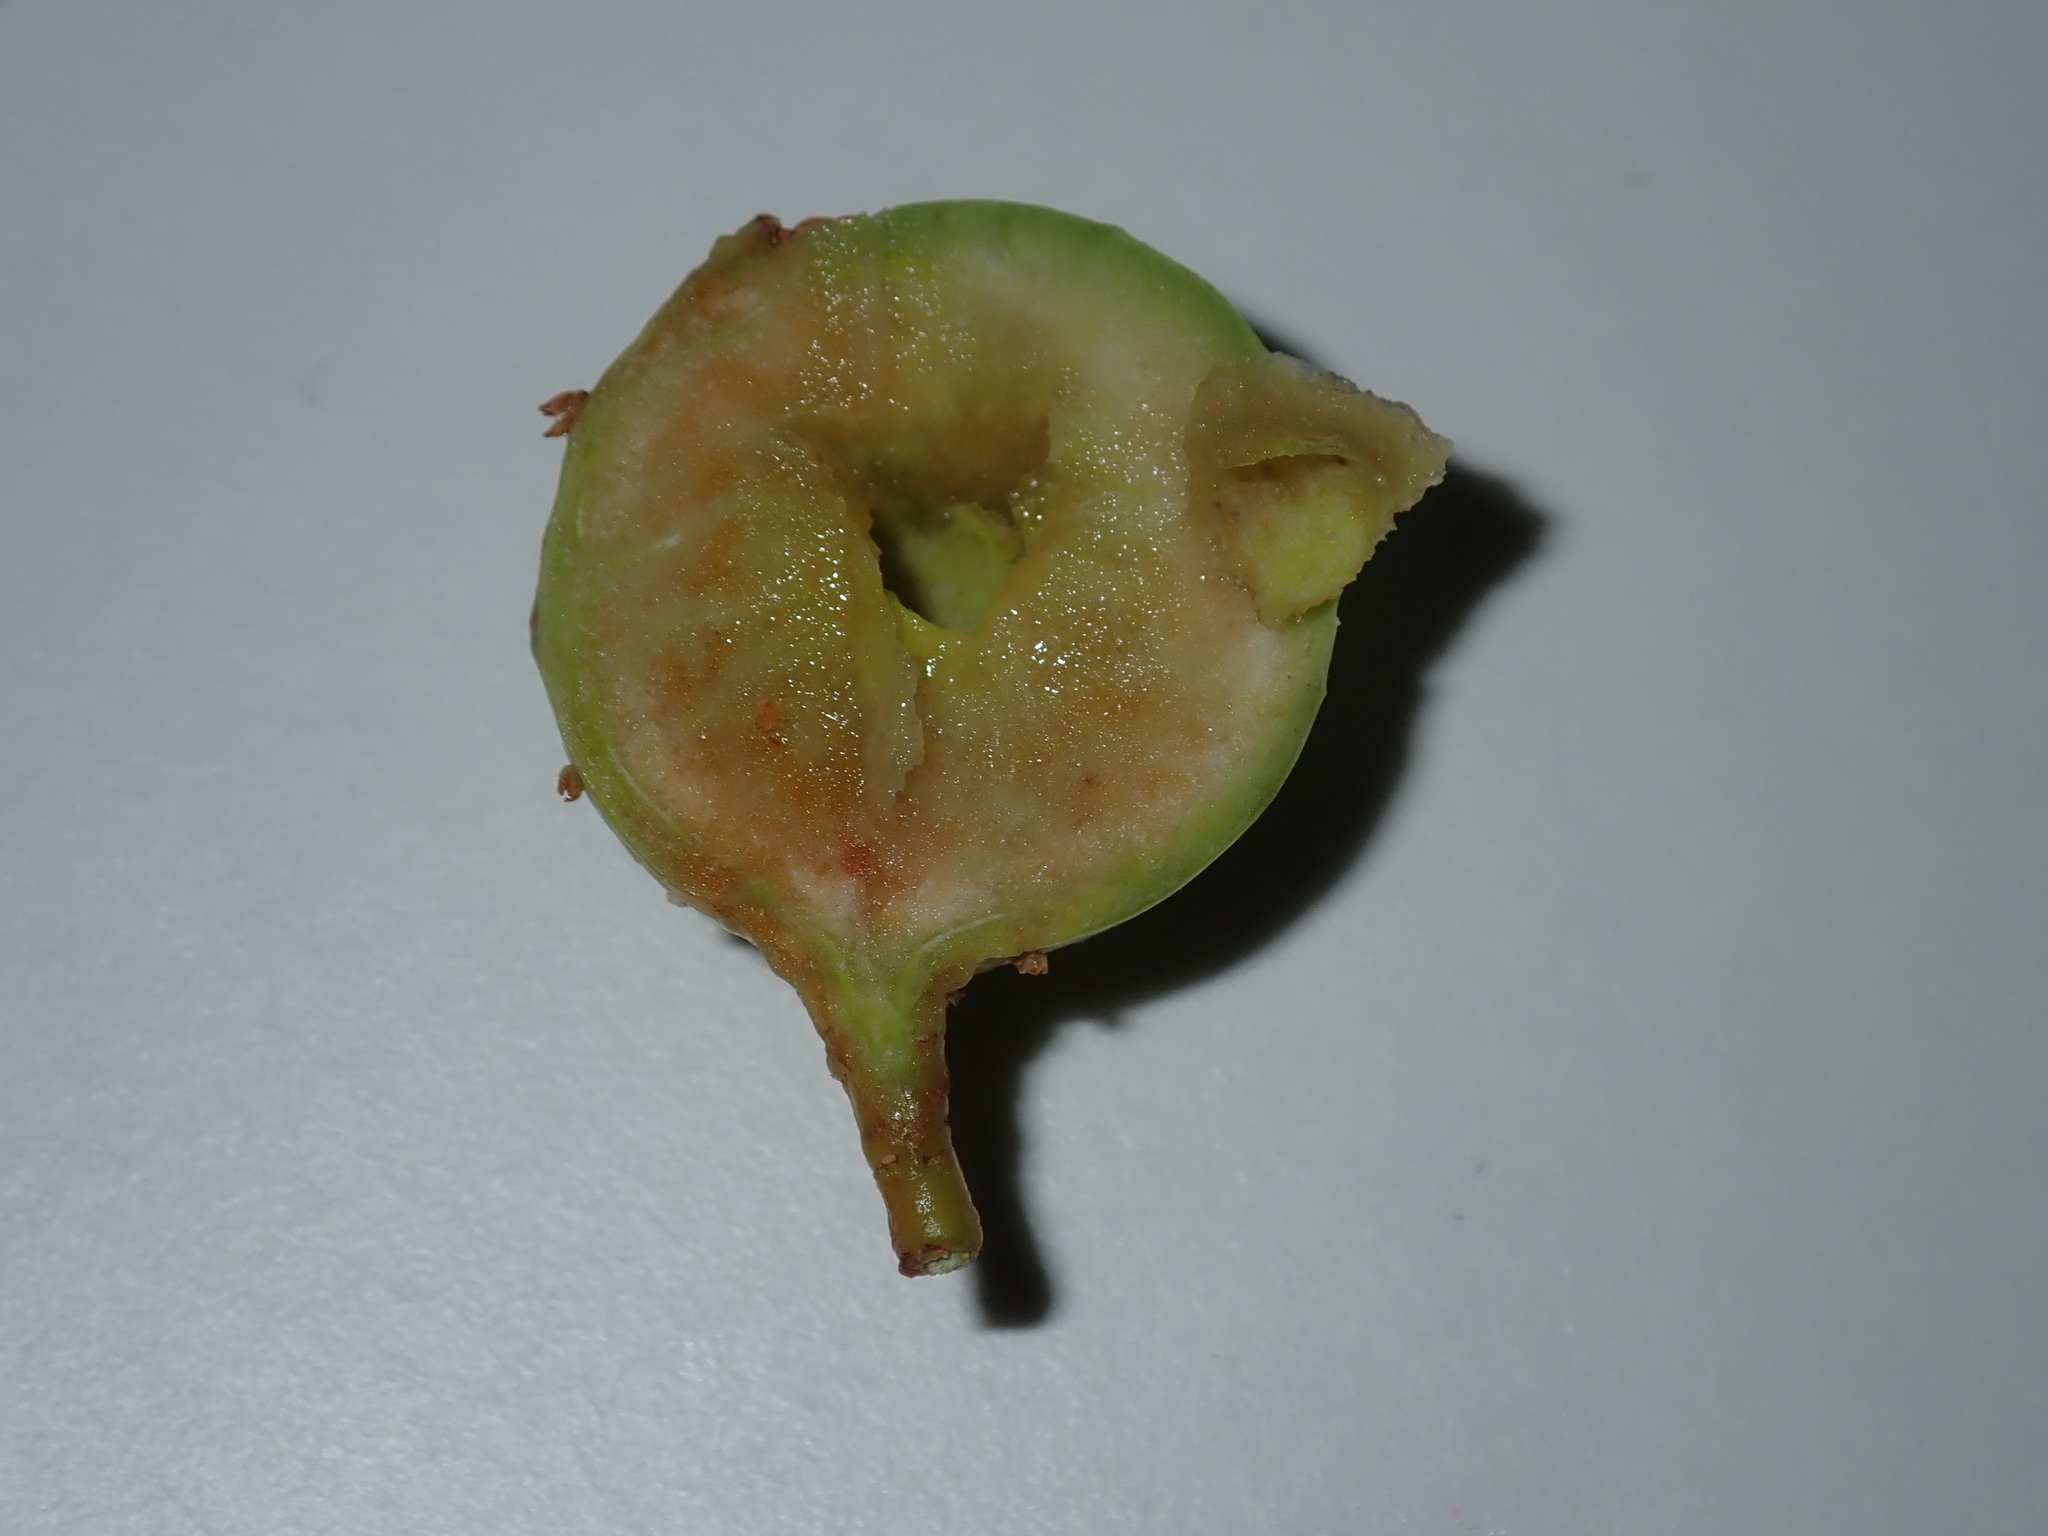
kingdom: Animalia
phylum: Arthropoda
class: Insecta
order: Hymenoptera
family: Pteromalidae
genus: Trichilogaster
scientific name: Trichilogaster acaciaelongifoliae
